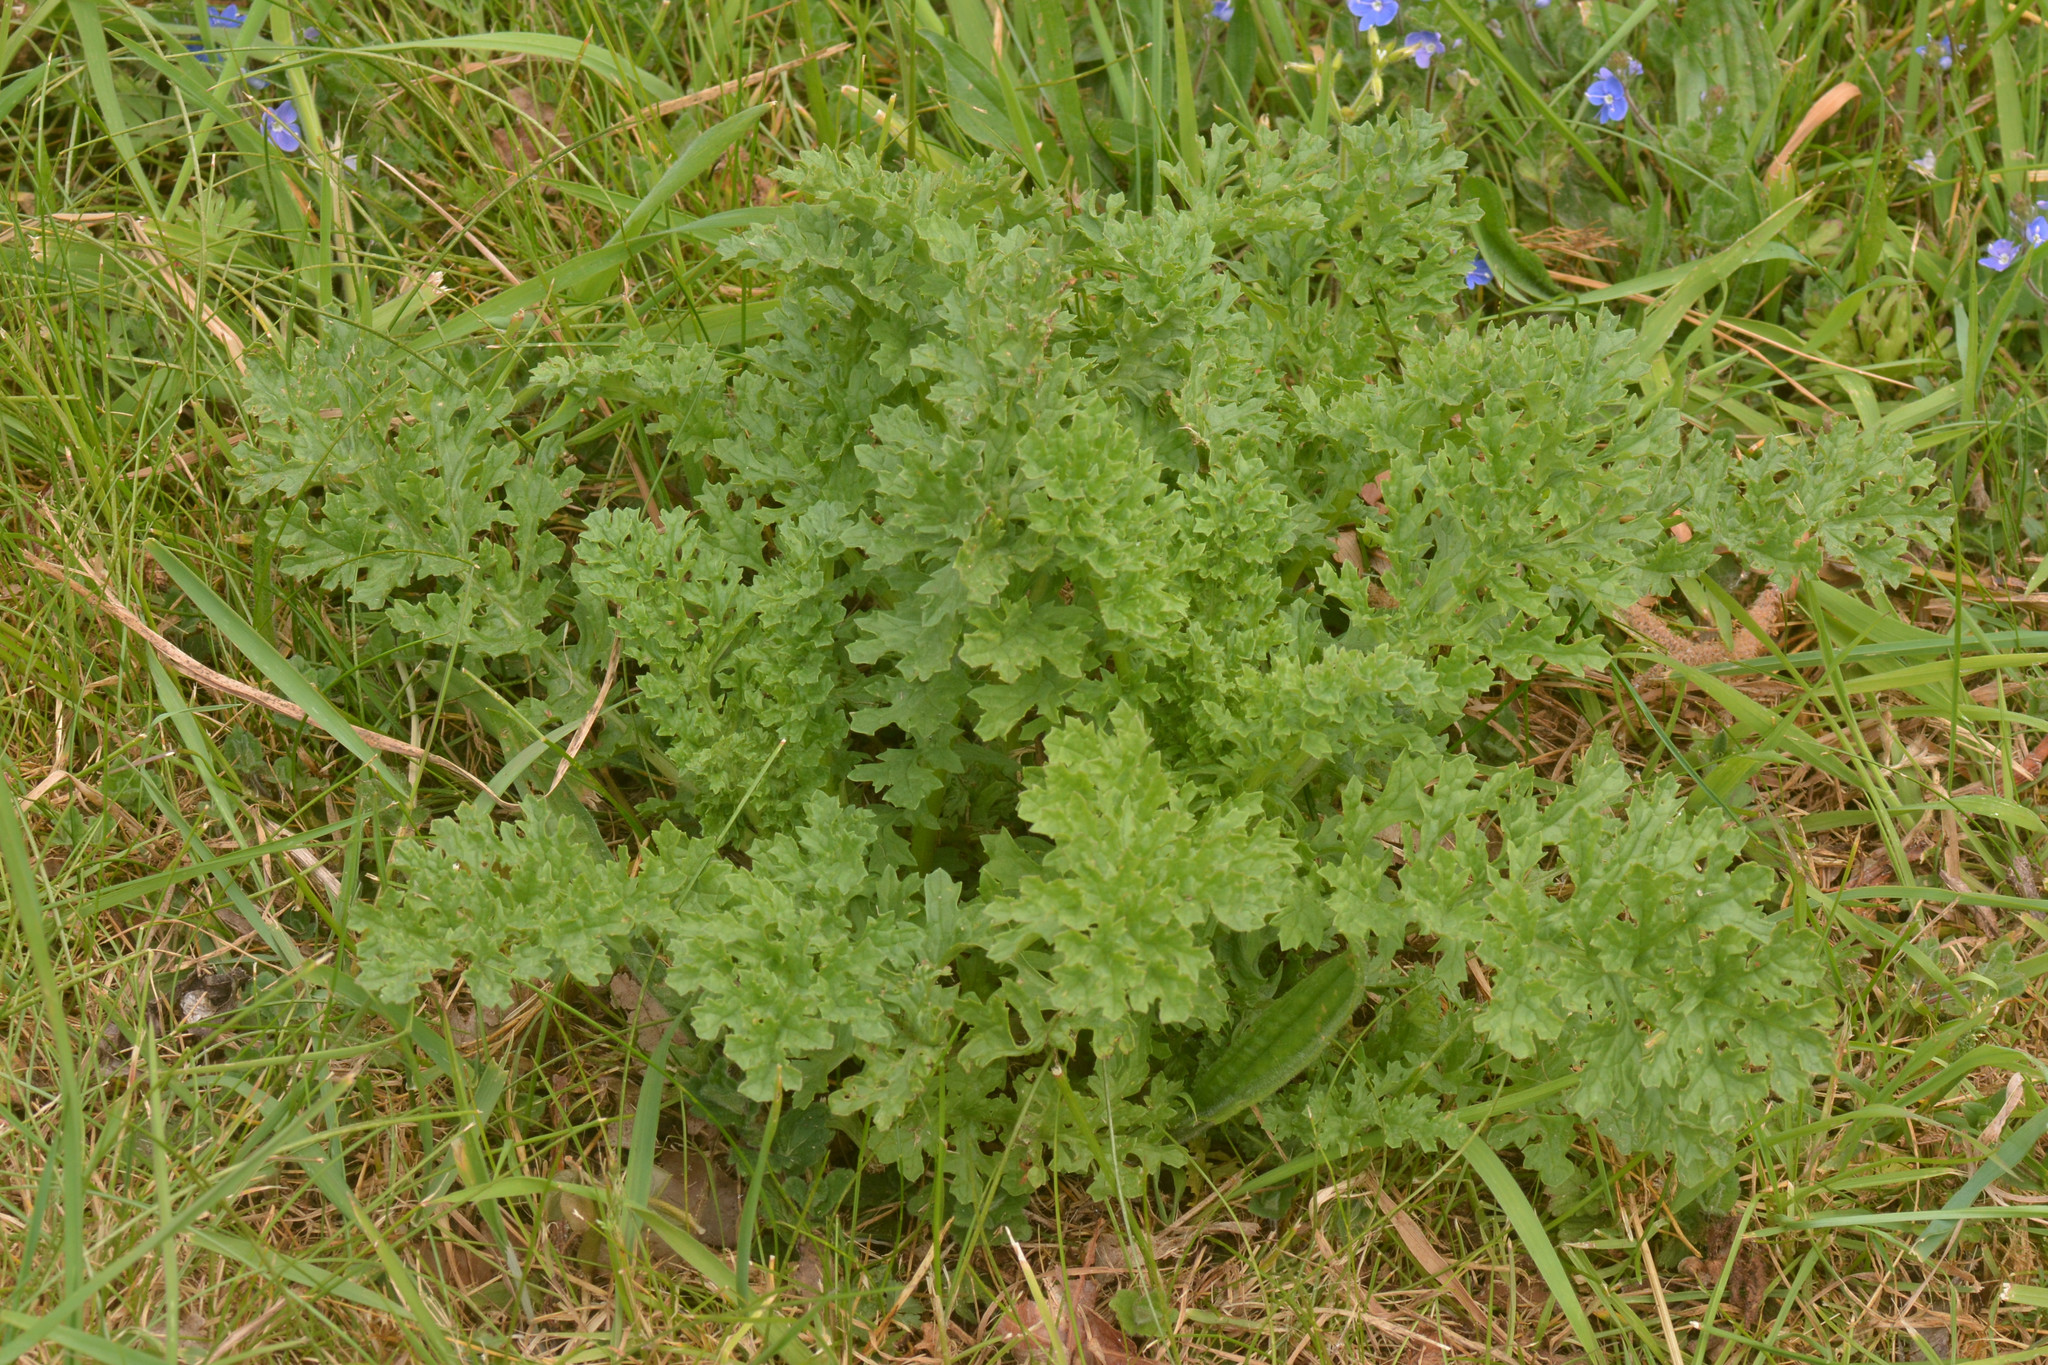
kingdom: Plantae
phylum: Tracheophyta
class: Magnoliopsida
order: Asterales
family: Asteraceae
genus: Jacobaea
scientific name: Jacobaea vulgaris
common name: Stinking willie
